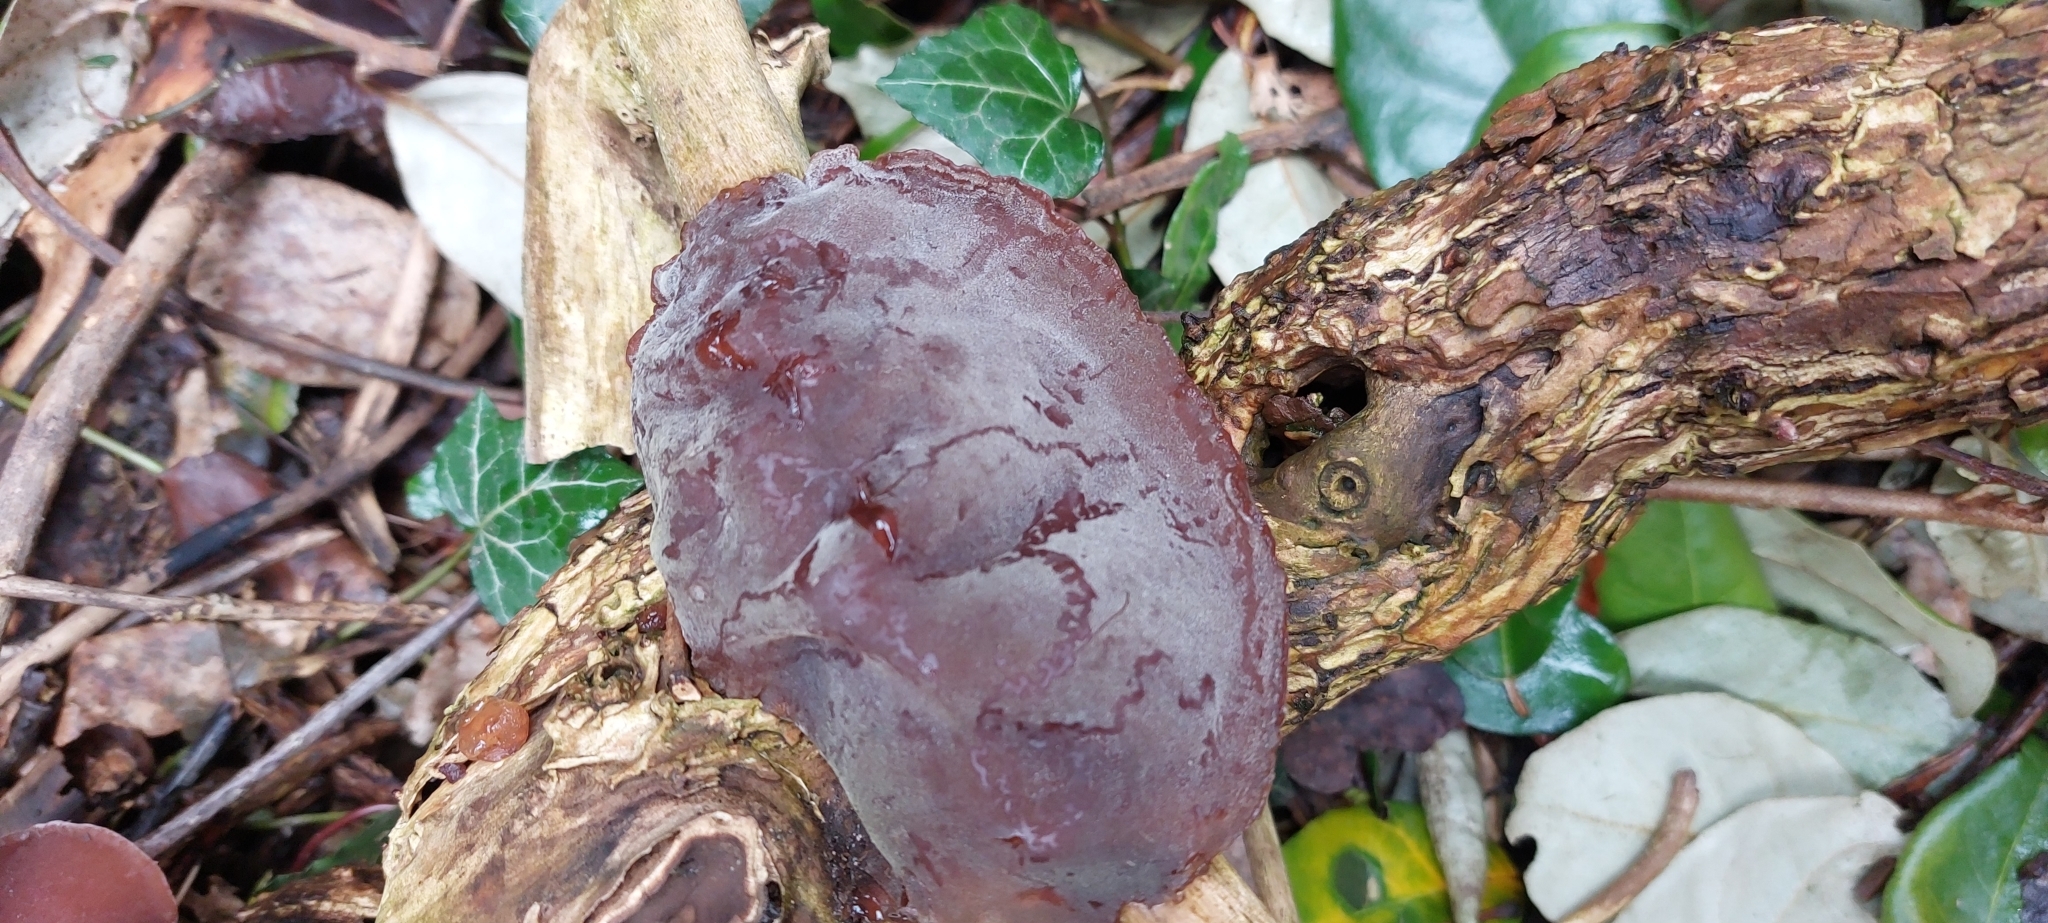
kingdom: Fungi
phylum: Basidiomycota
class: Agaricomycetes
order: Auriculariales
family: Auriculariaceae
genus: Auricularia
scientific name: Auricularia auricula-judae
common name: Jelly ear
